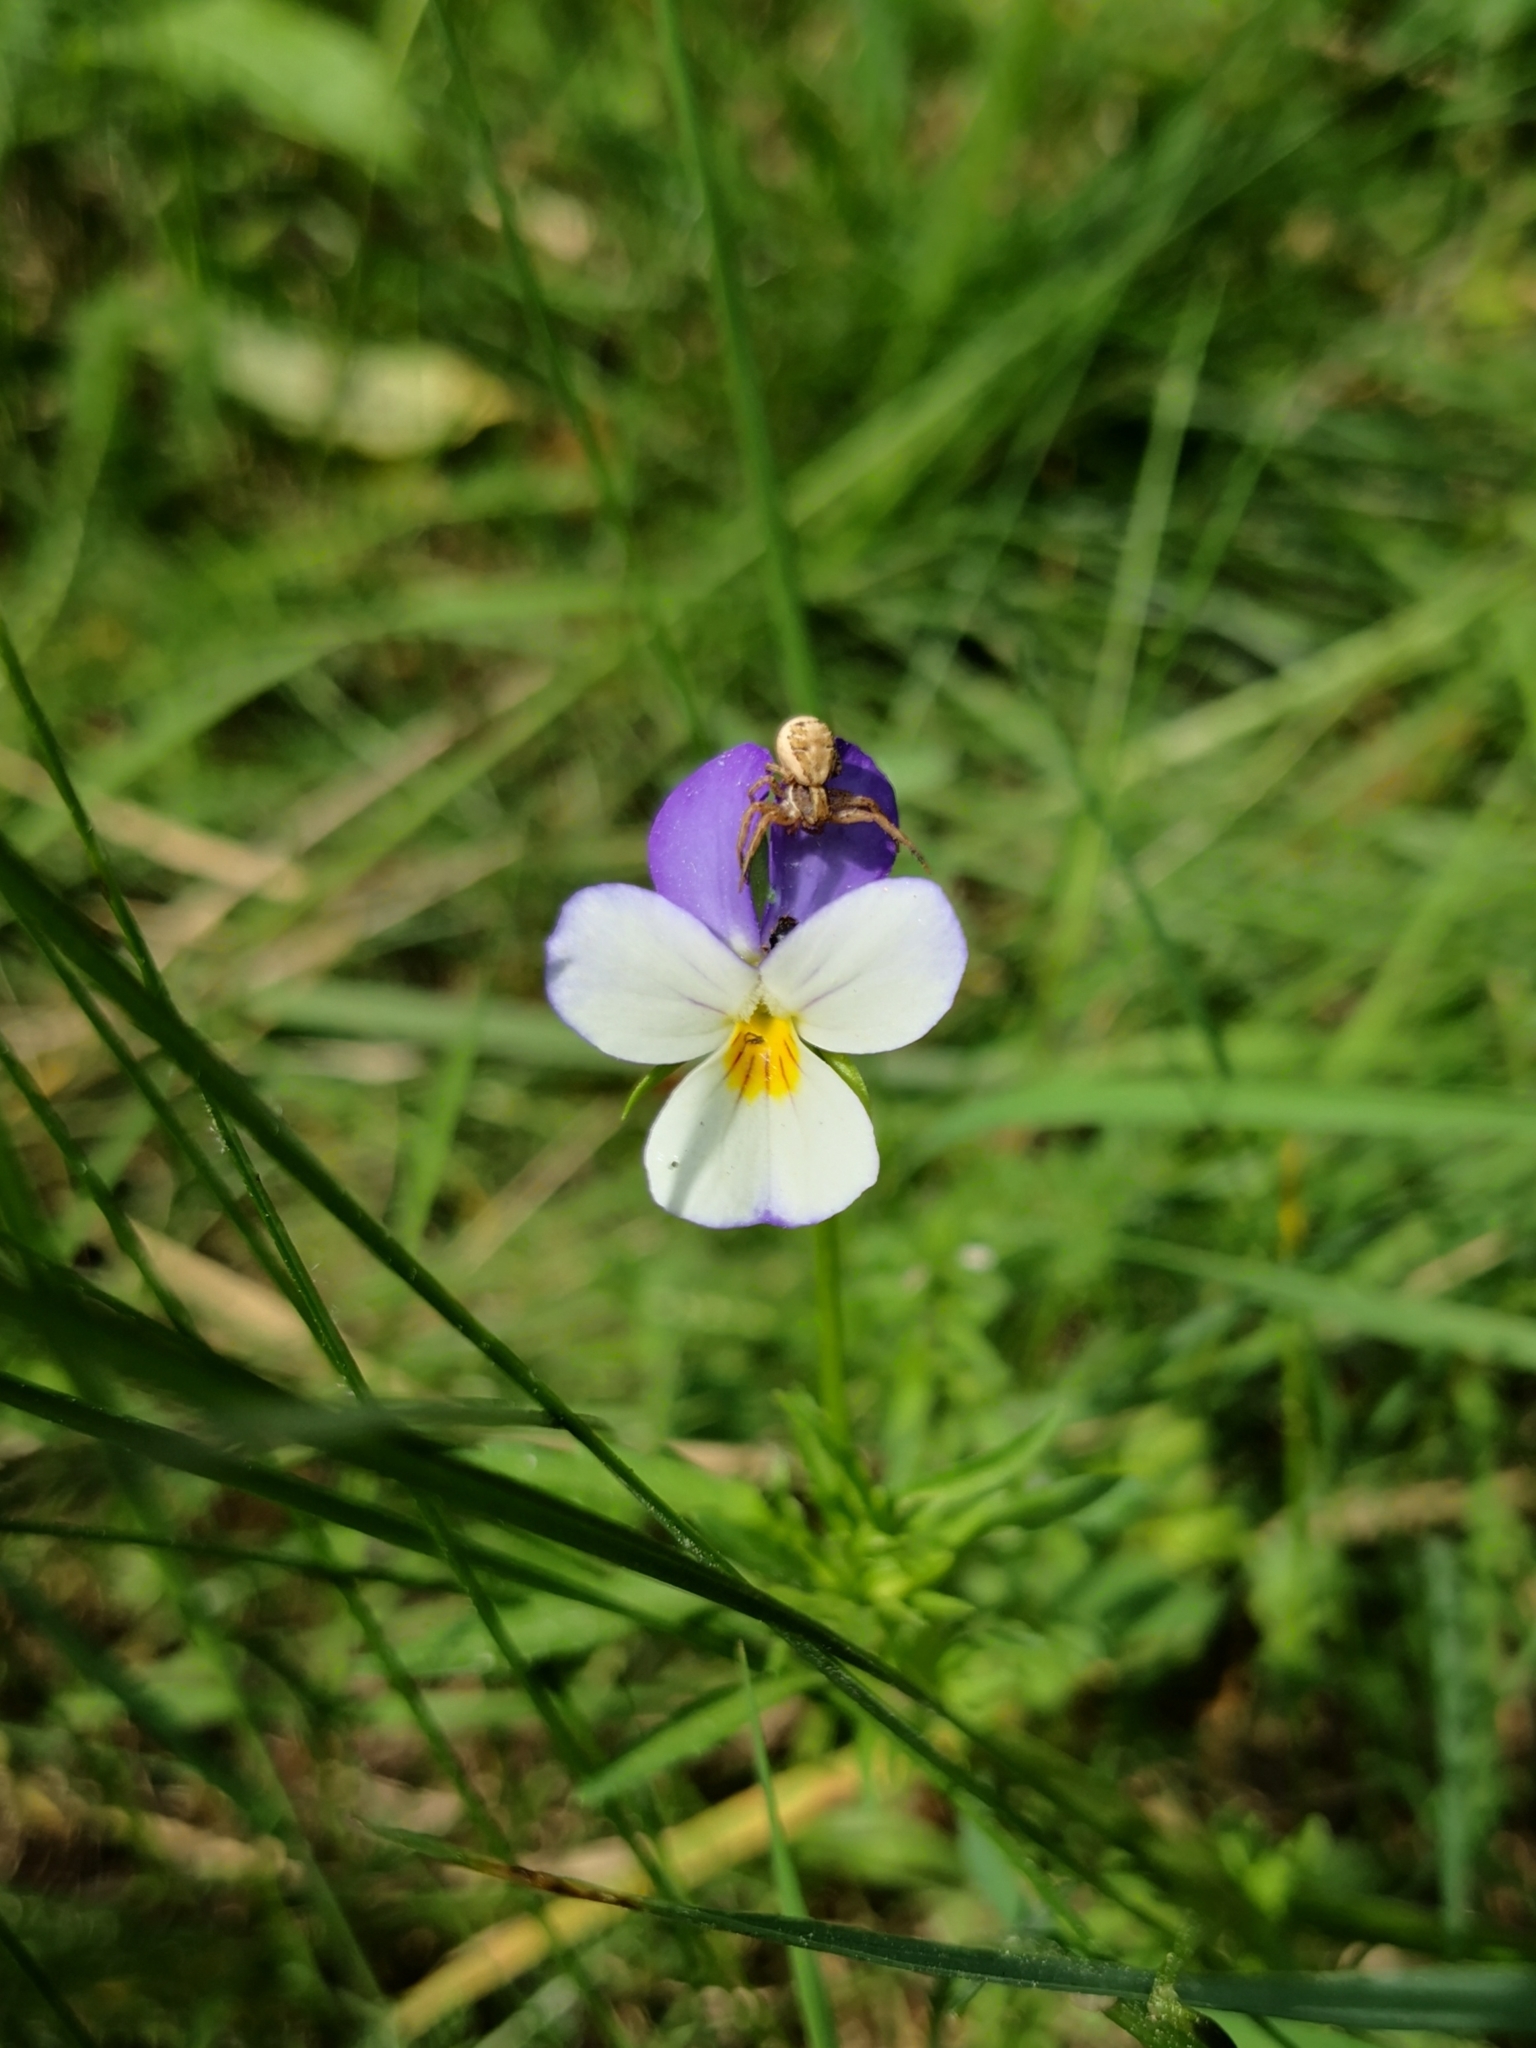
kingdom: Plantae
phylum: Tracheophyta
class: Magnoliopsida
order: Malpighiales
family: Violaceae
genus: Viola
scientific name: Viola tricolor
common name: Pansy
